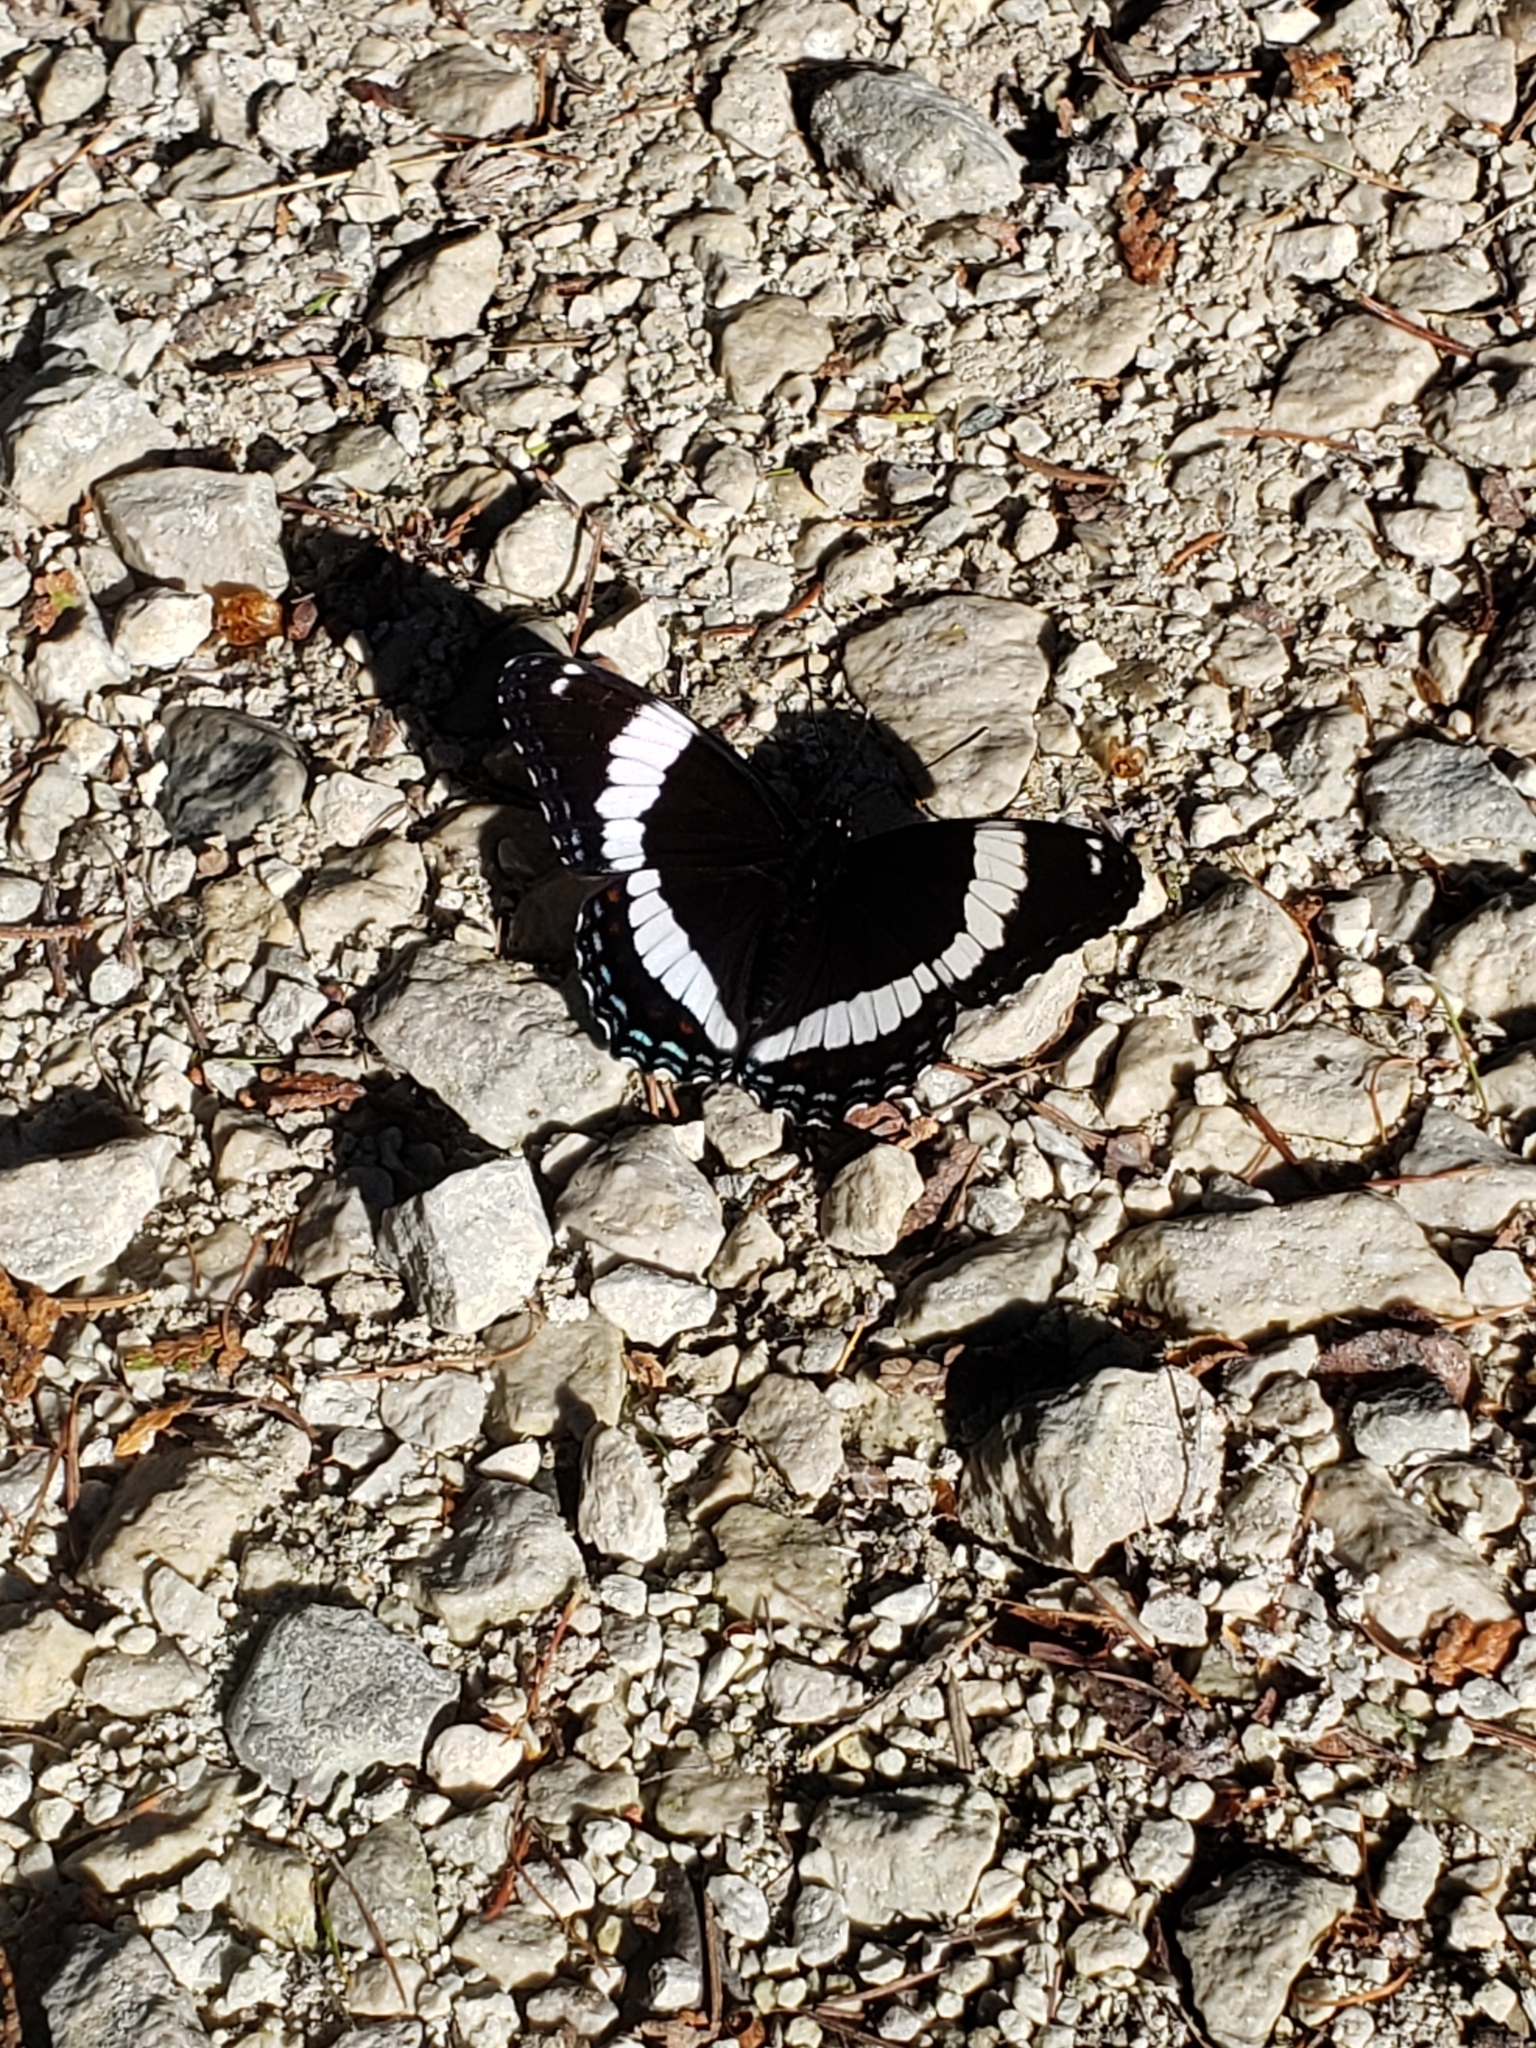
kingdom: Animalia
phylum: Arthropoda
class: Insecta
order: Lepidoptera
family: Nymphalidae
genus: Limenitis
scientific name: Limenitis arthemis
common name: Red-spotted admiral
